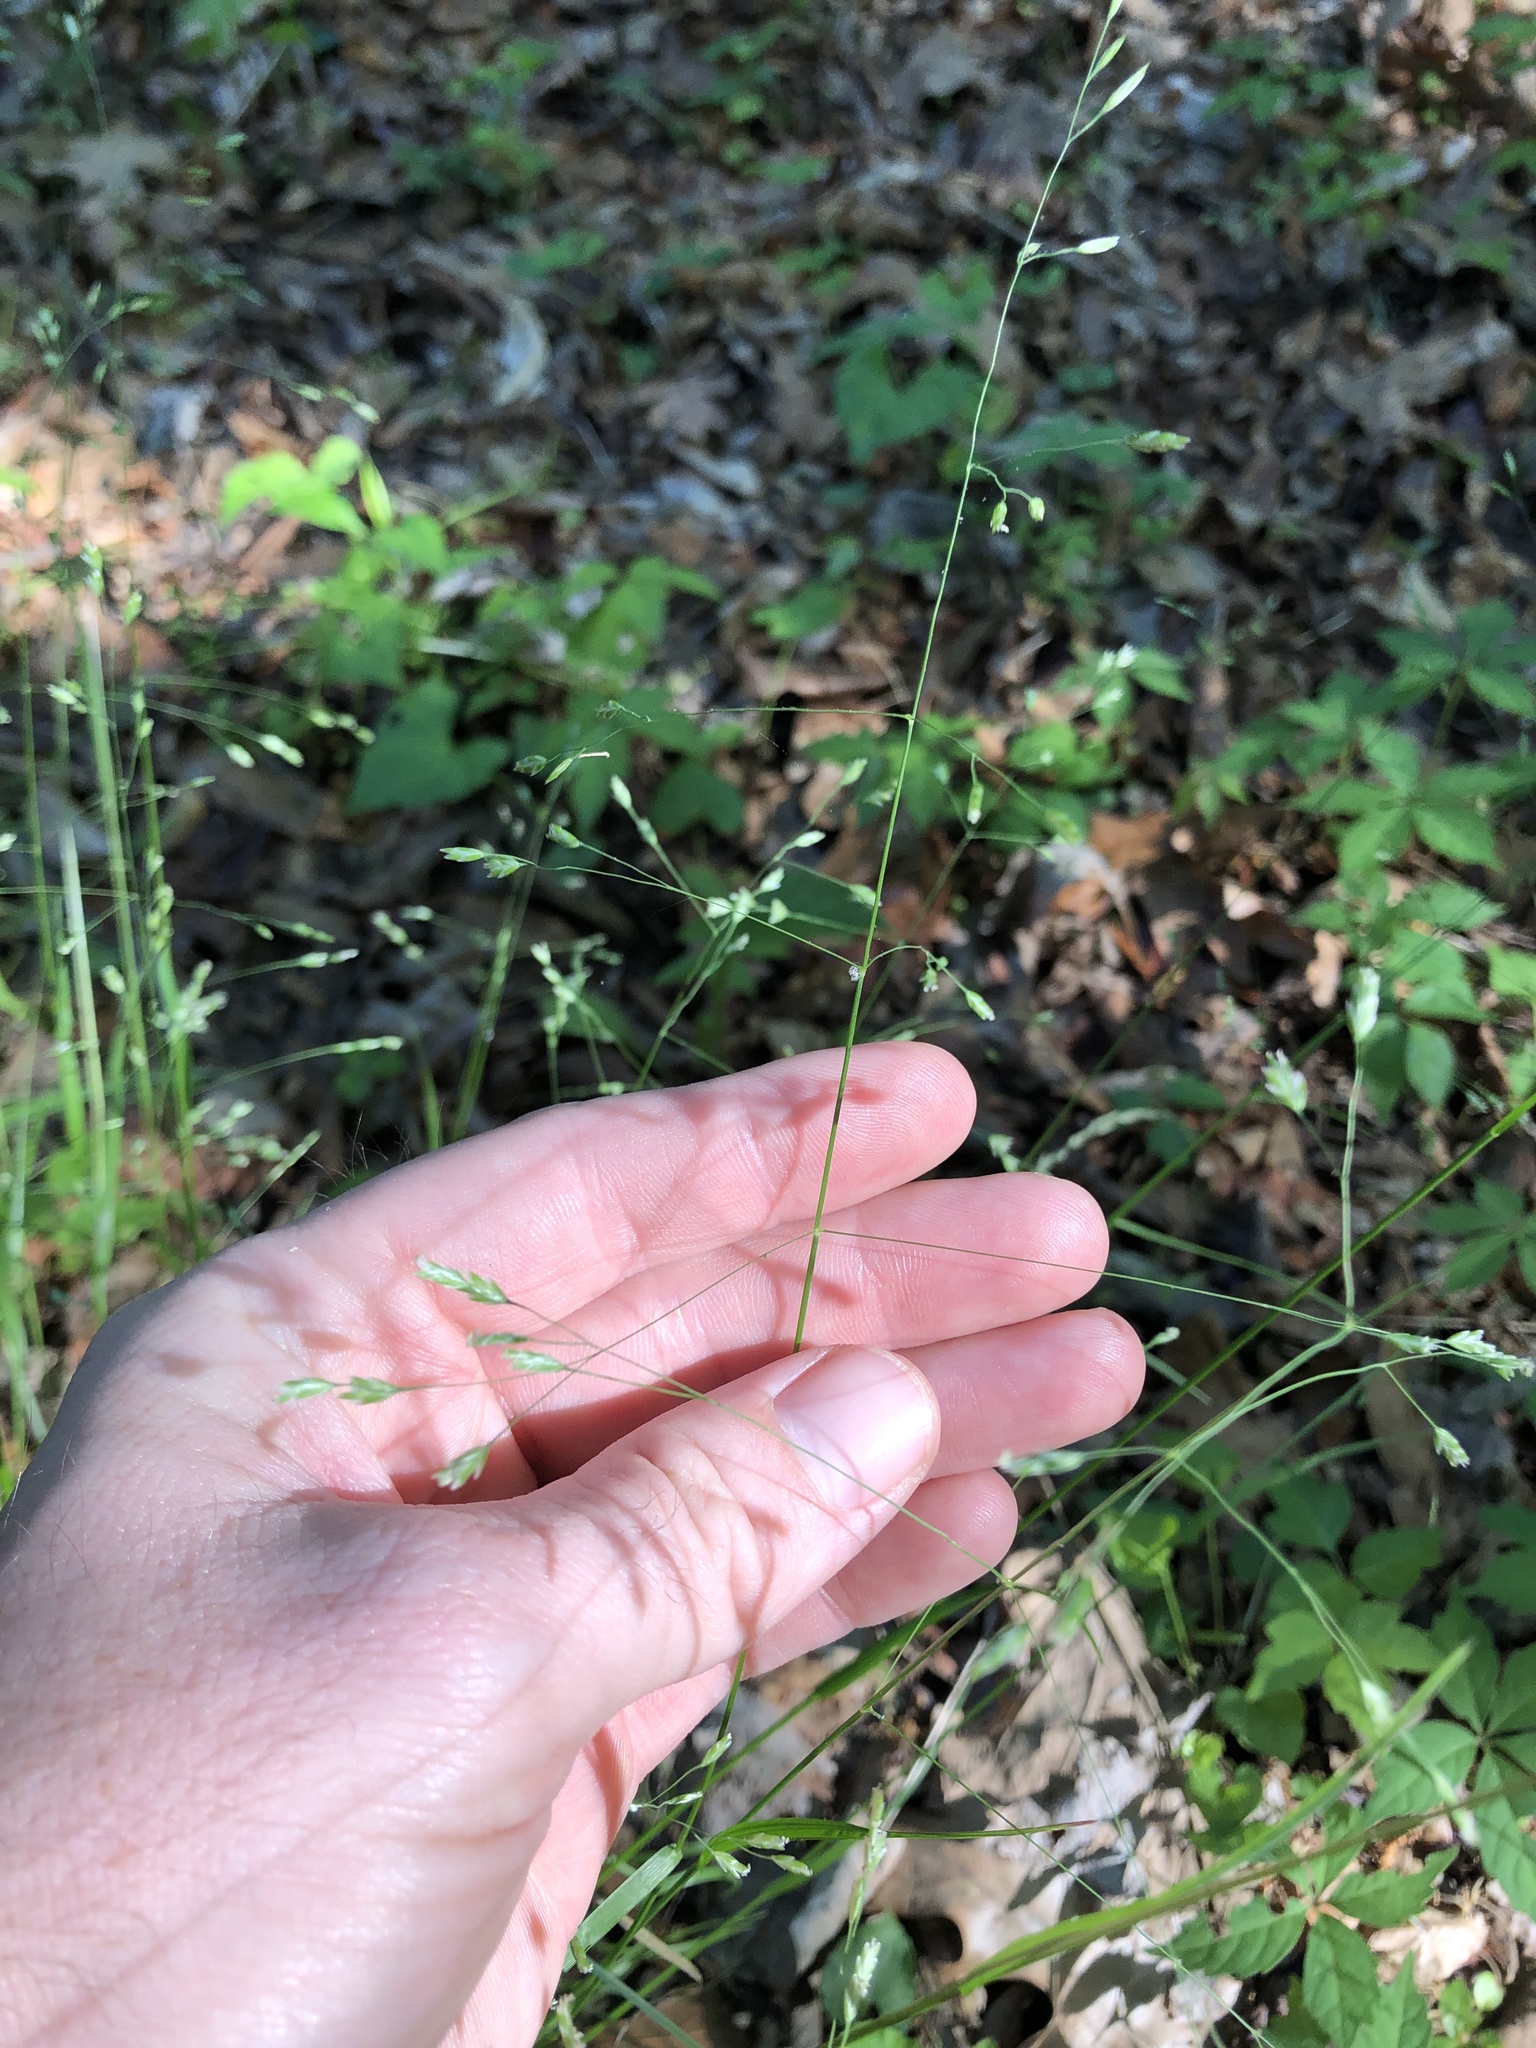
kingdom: Plantae
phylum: Tracheophyta
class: Liliopsida
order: Poales
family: Poaceae
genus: Poa
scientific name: Poa autumnalis
